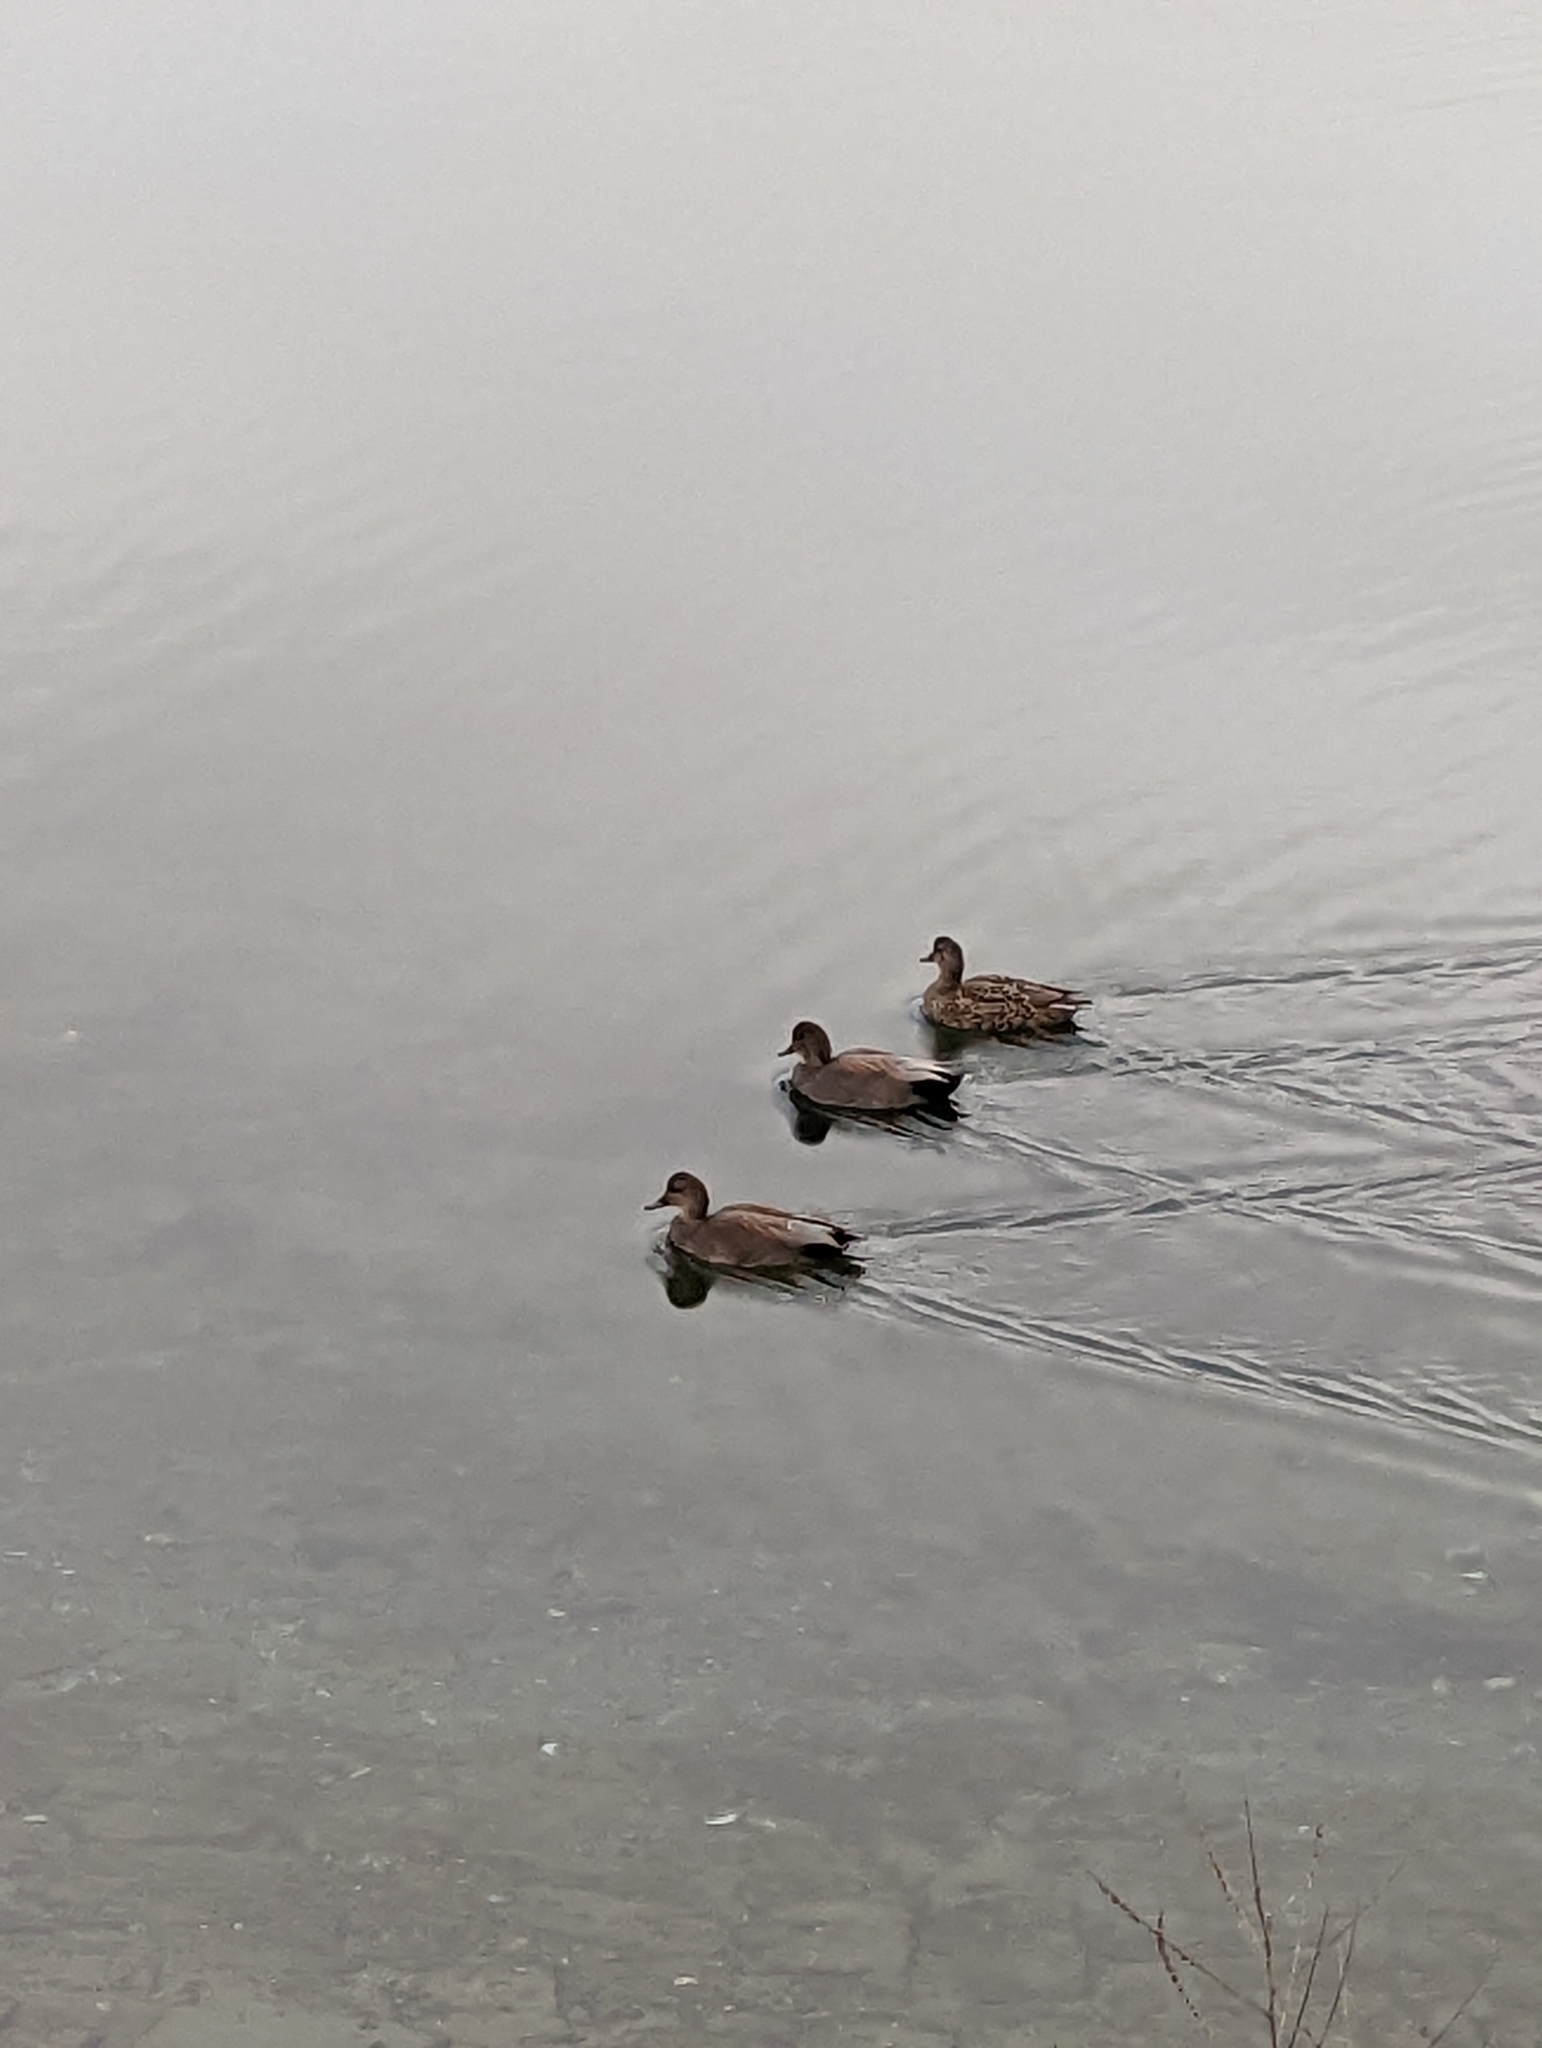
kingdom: Animalia
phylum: Chordata
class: Aves
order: Anseriformes
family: Anatidae
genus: Mareca
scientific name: Mareca strepera
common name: Gadwall
